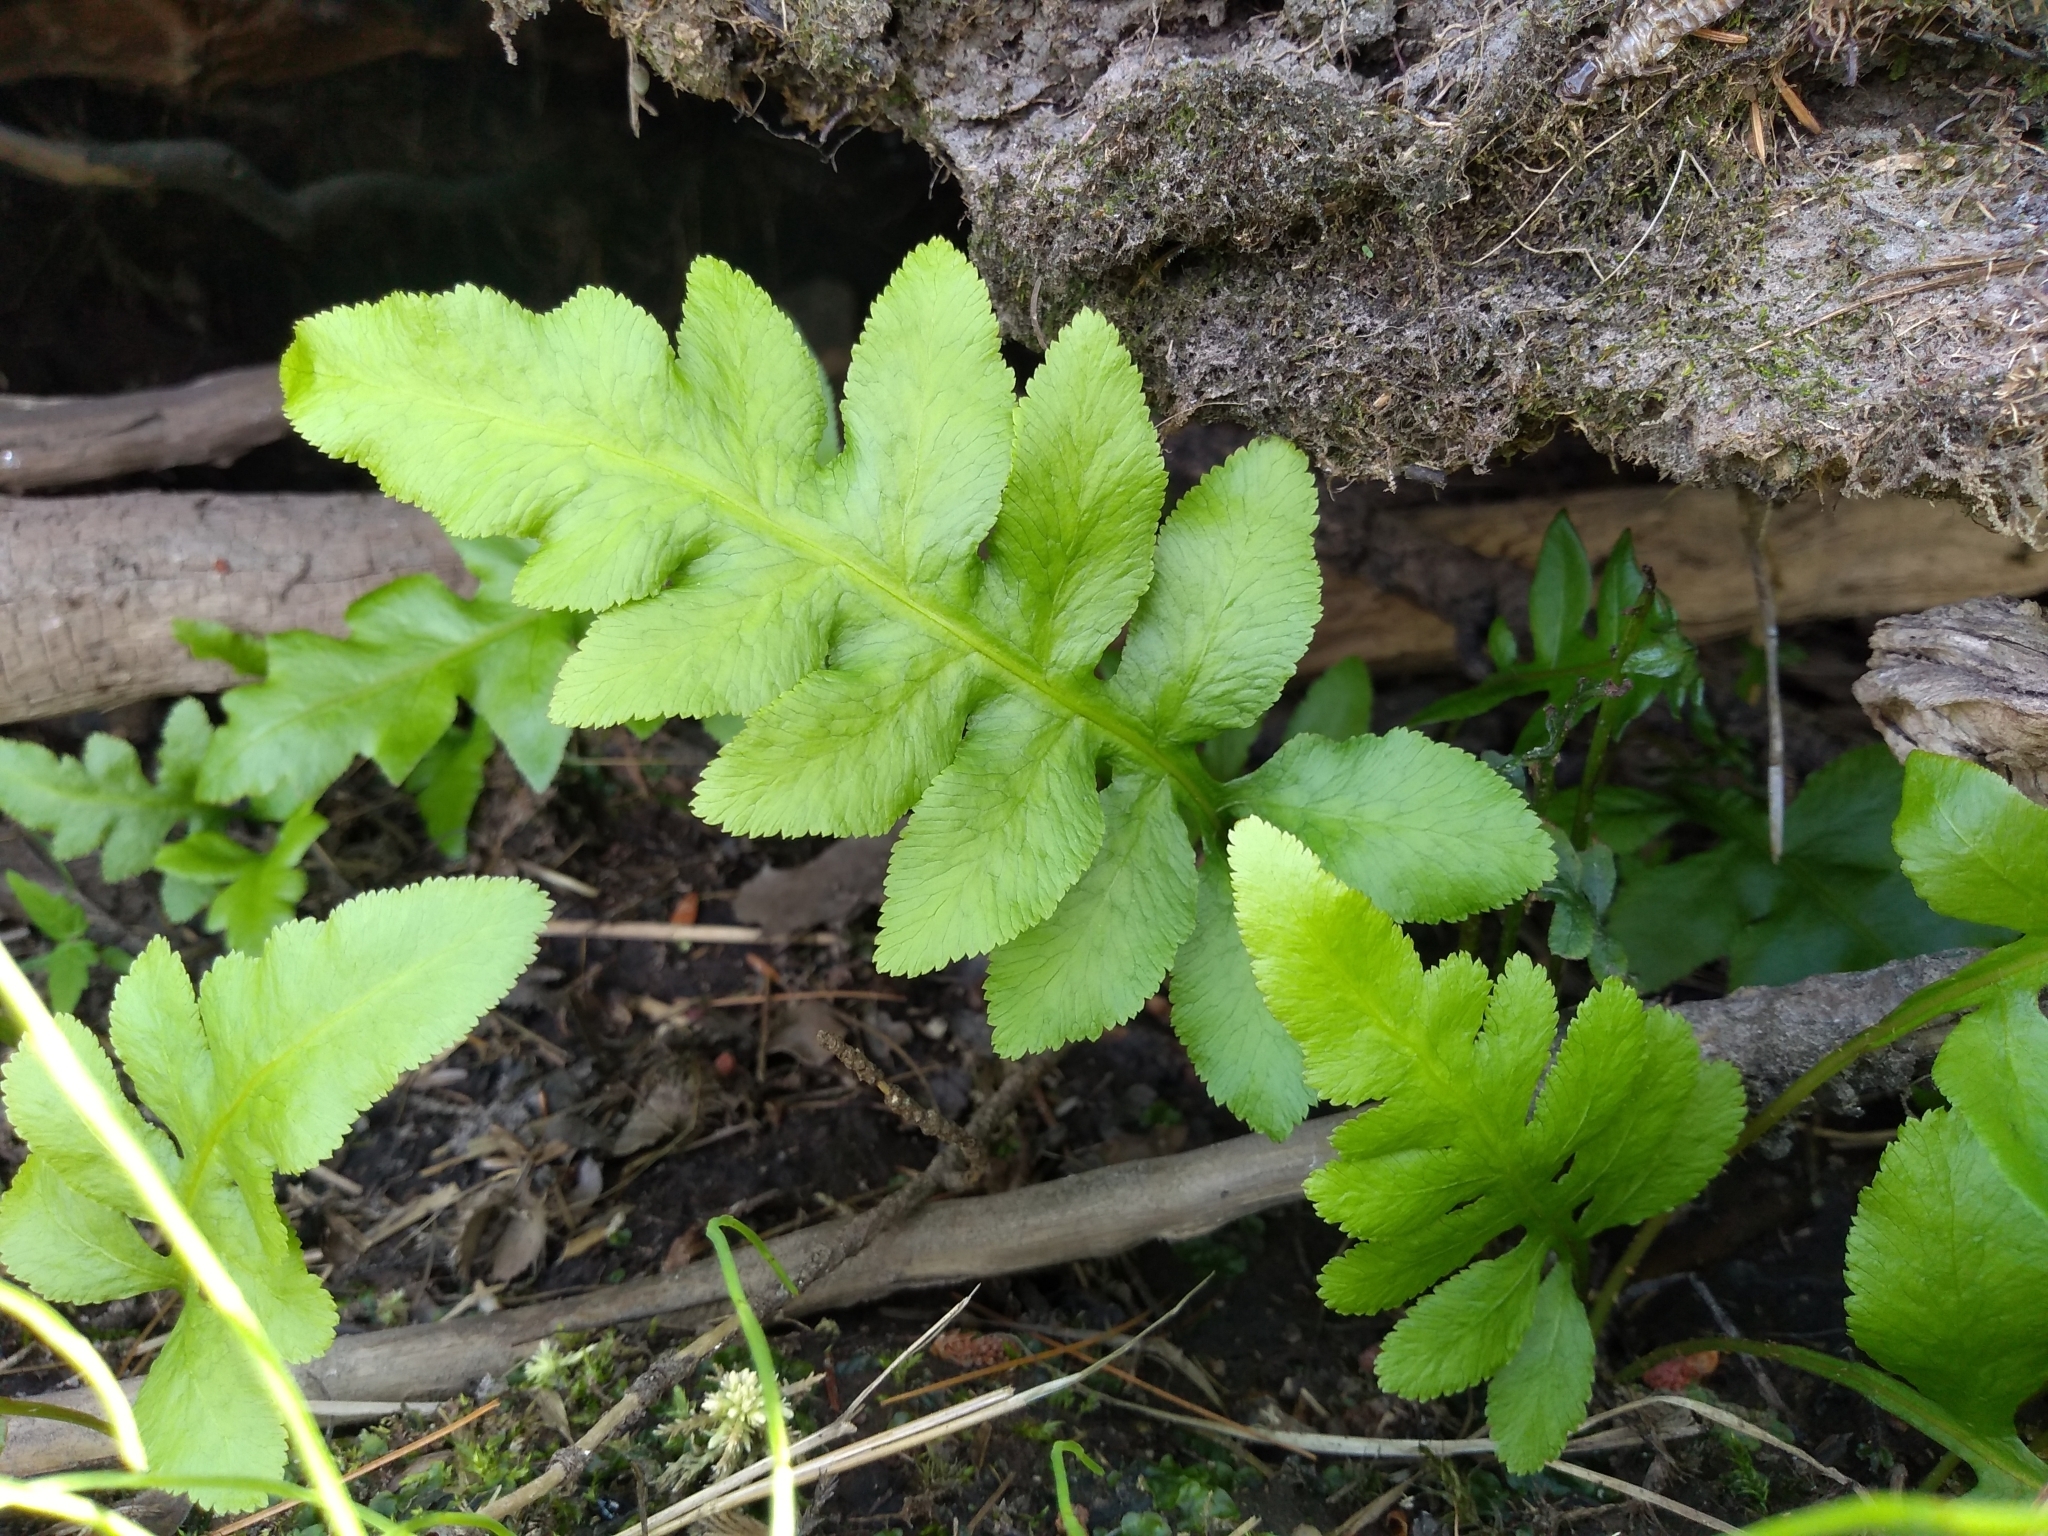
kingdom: Plantae
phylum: Tracheophyta
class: Polypodiopsida
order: Polypodiales
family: Blechnaceae
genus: Lorinseria
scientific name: Lorinseria areolata
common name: Dwarf chain fern
